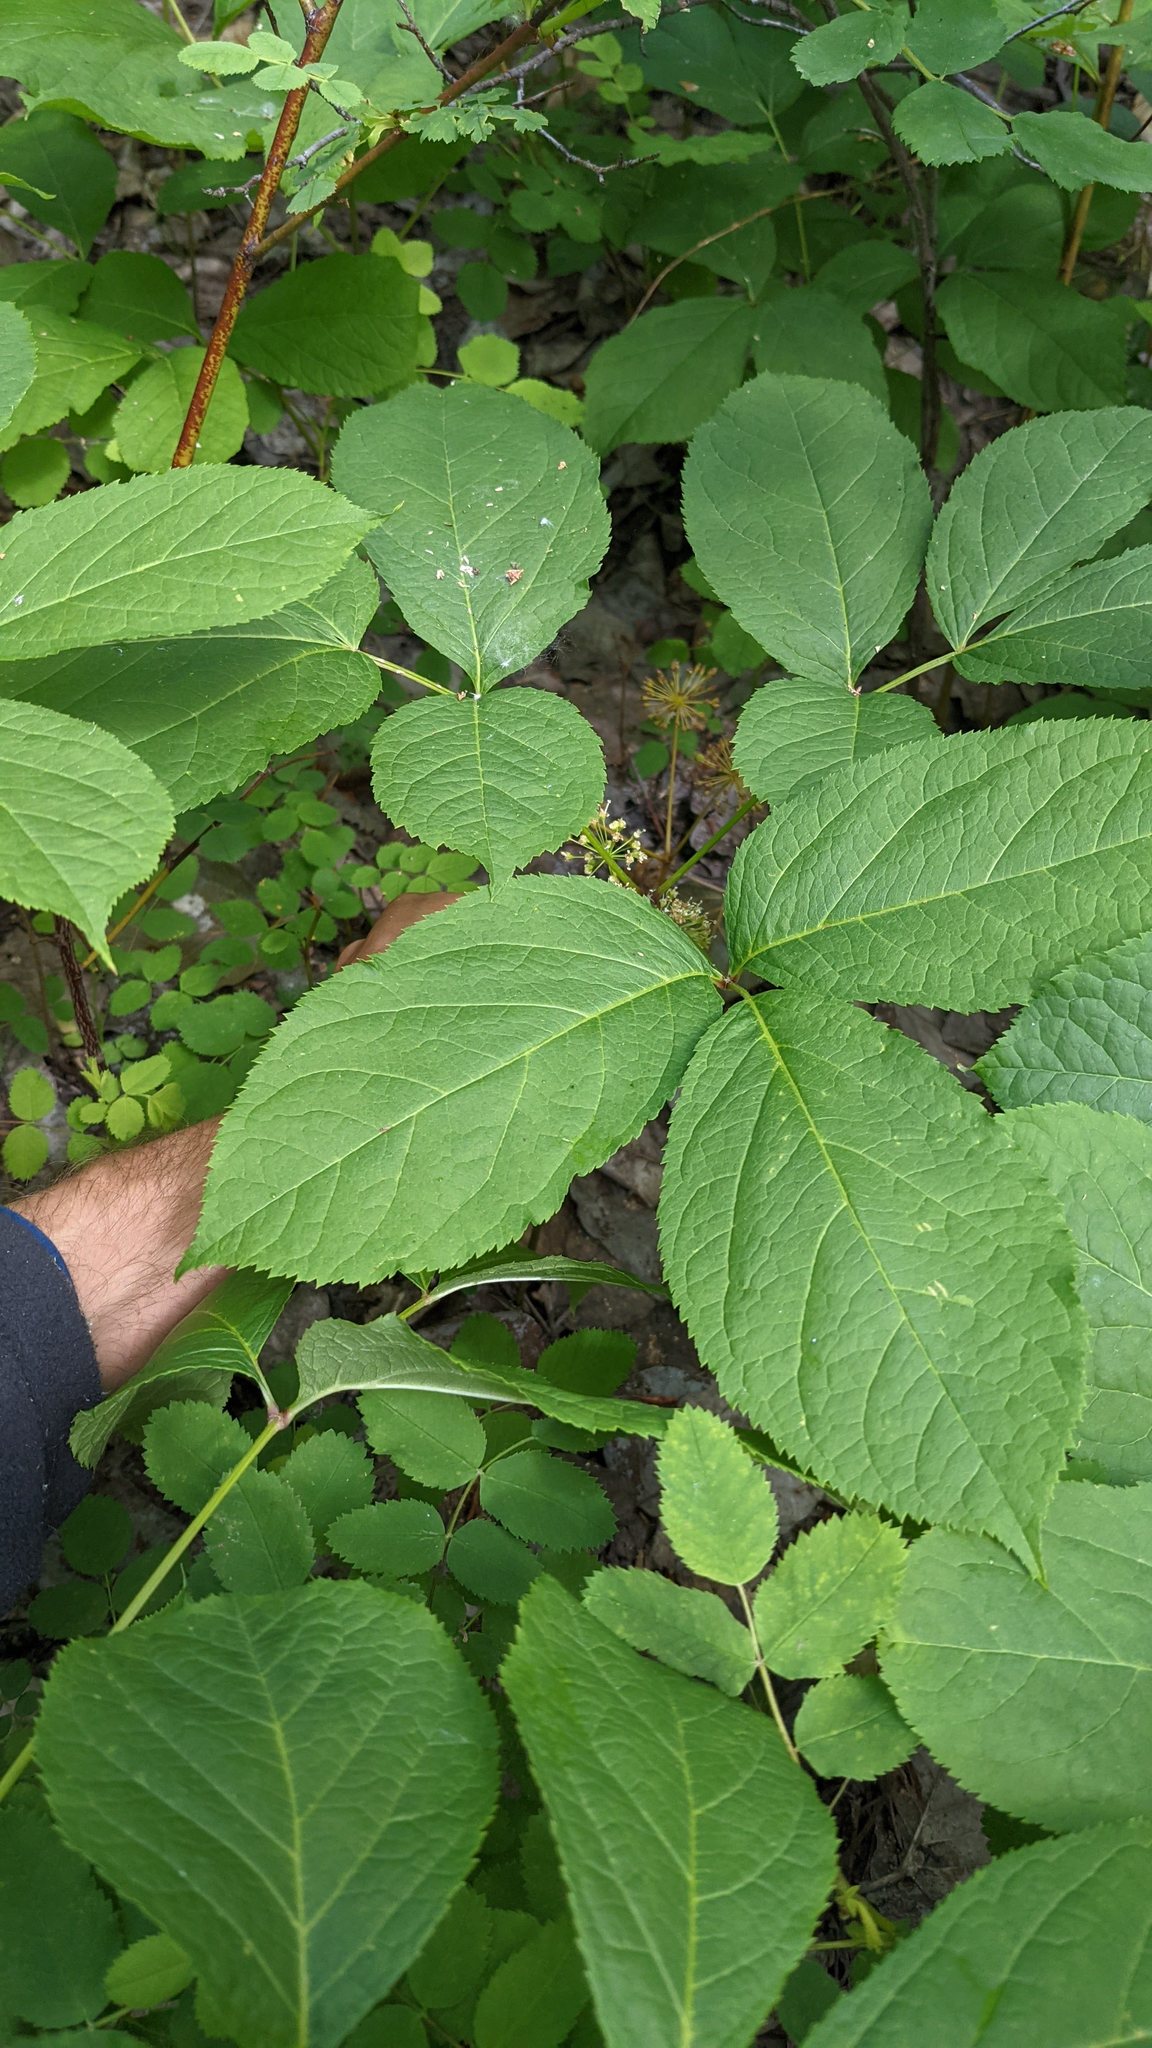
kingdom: Plantae
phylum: Tracheophyta
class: Magnoliopsida
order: Apiales
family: Araliaceae
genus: Aralia
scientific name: Aralia nudicaulis
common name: Wild sarsaparilla
